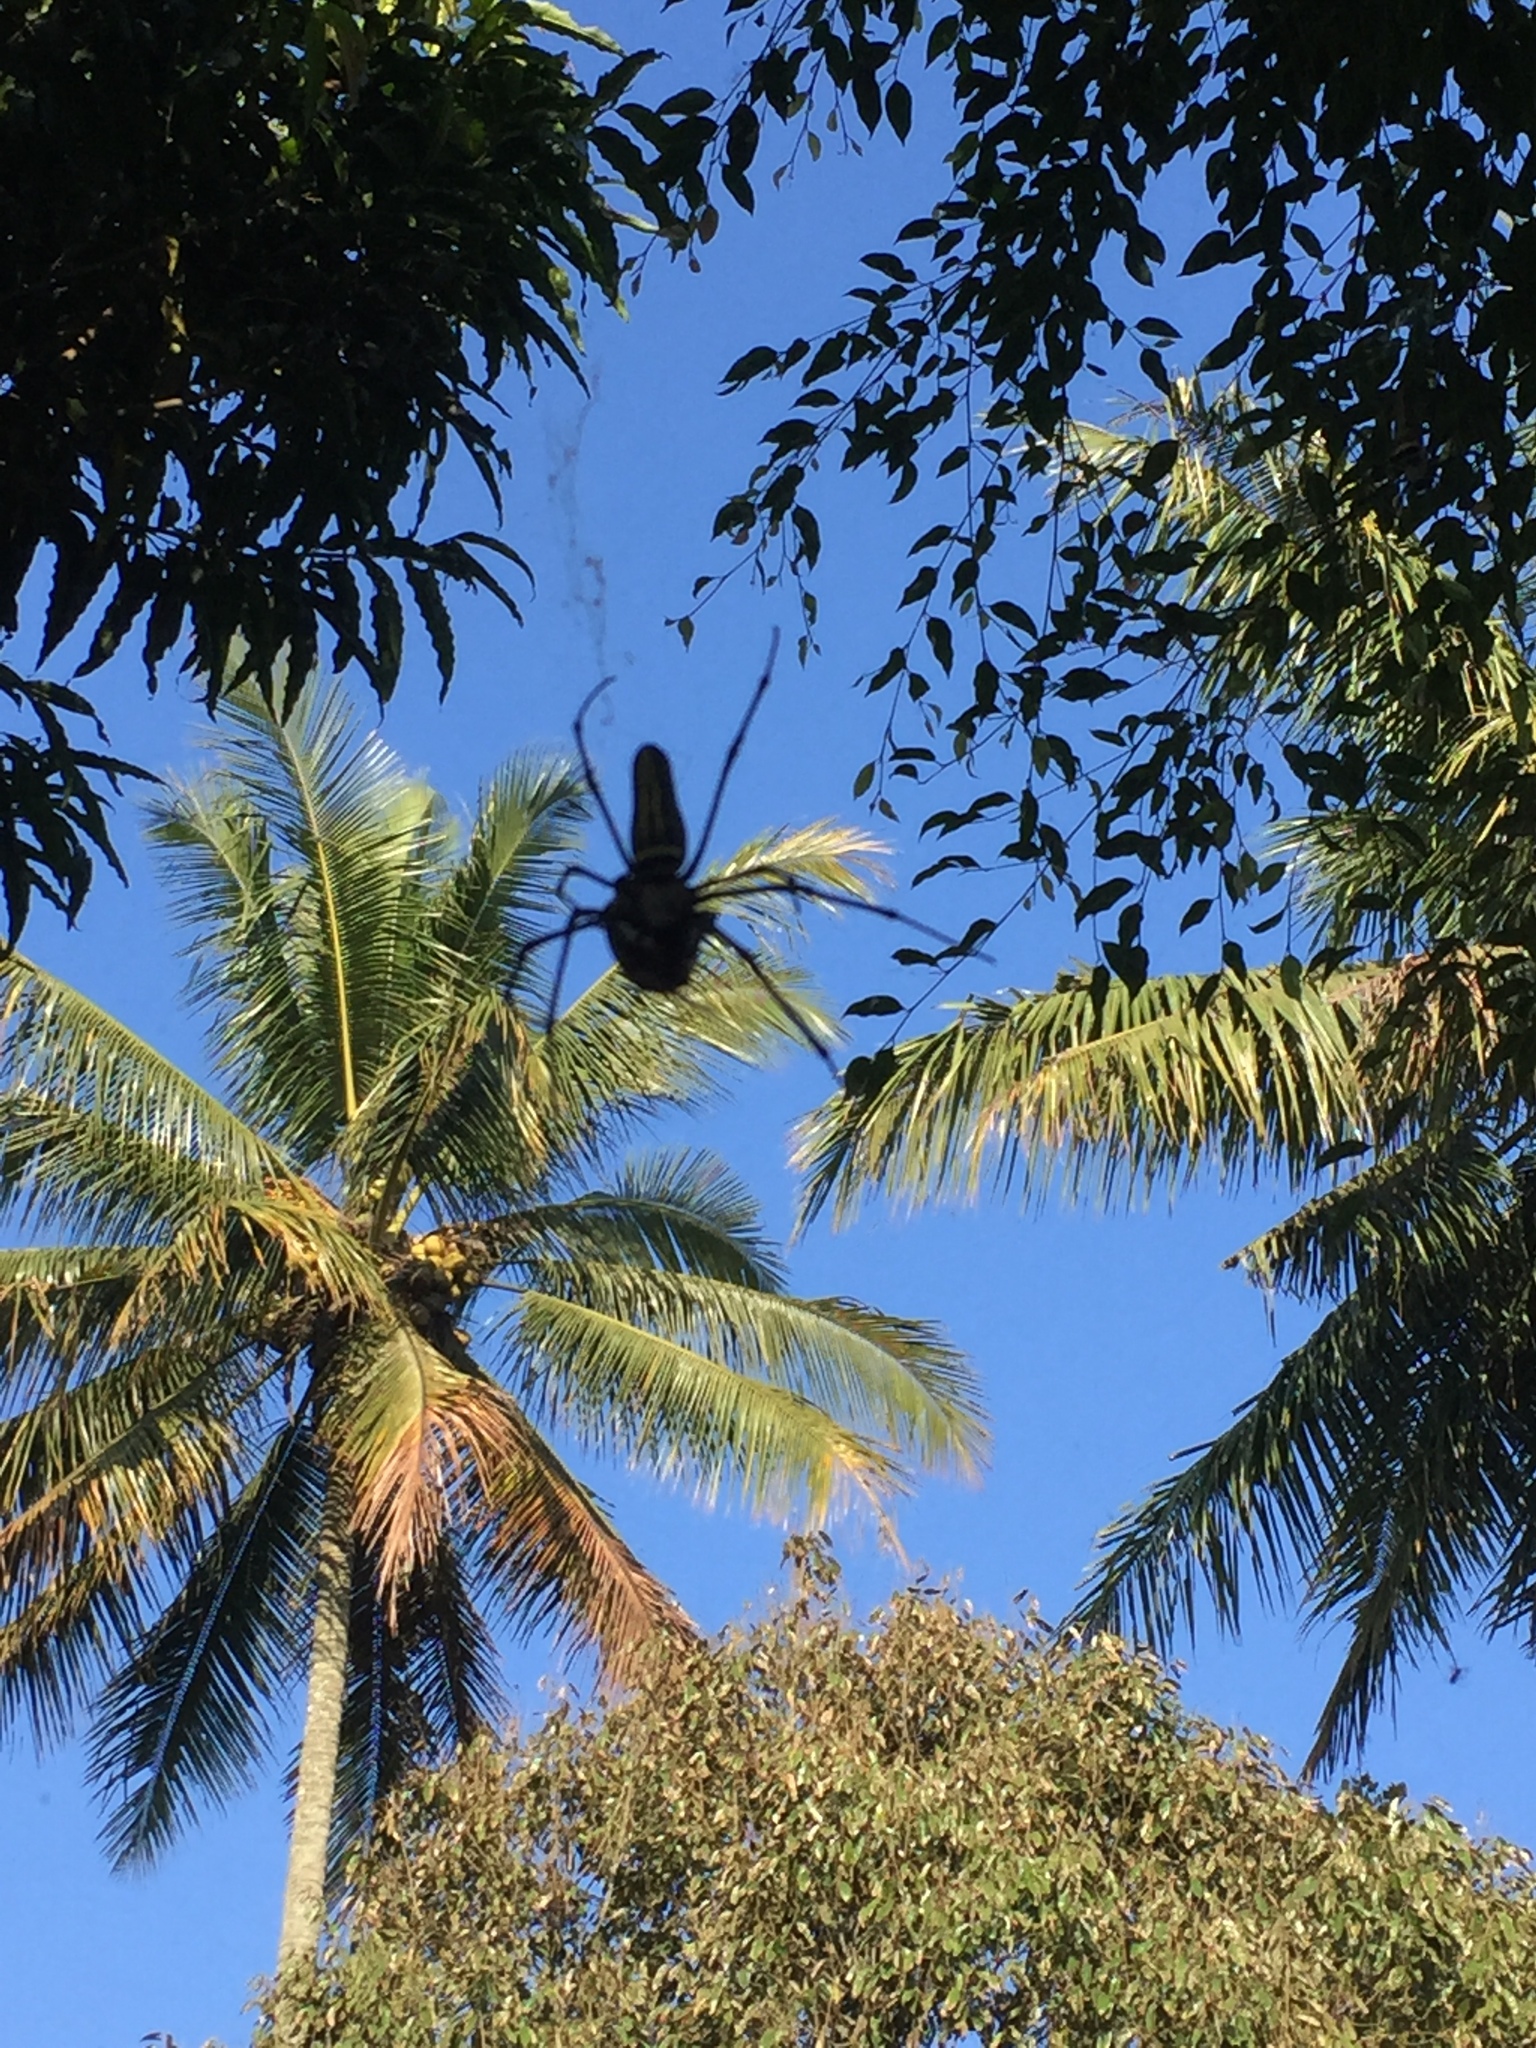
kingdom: Plantae
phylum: Tracheophyta
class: Liliopsida
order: Arecales
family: Arecaceae
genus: Cocos
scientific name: Cocos nucifera
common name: Coconut palm
